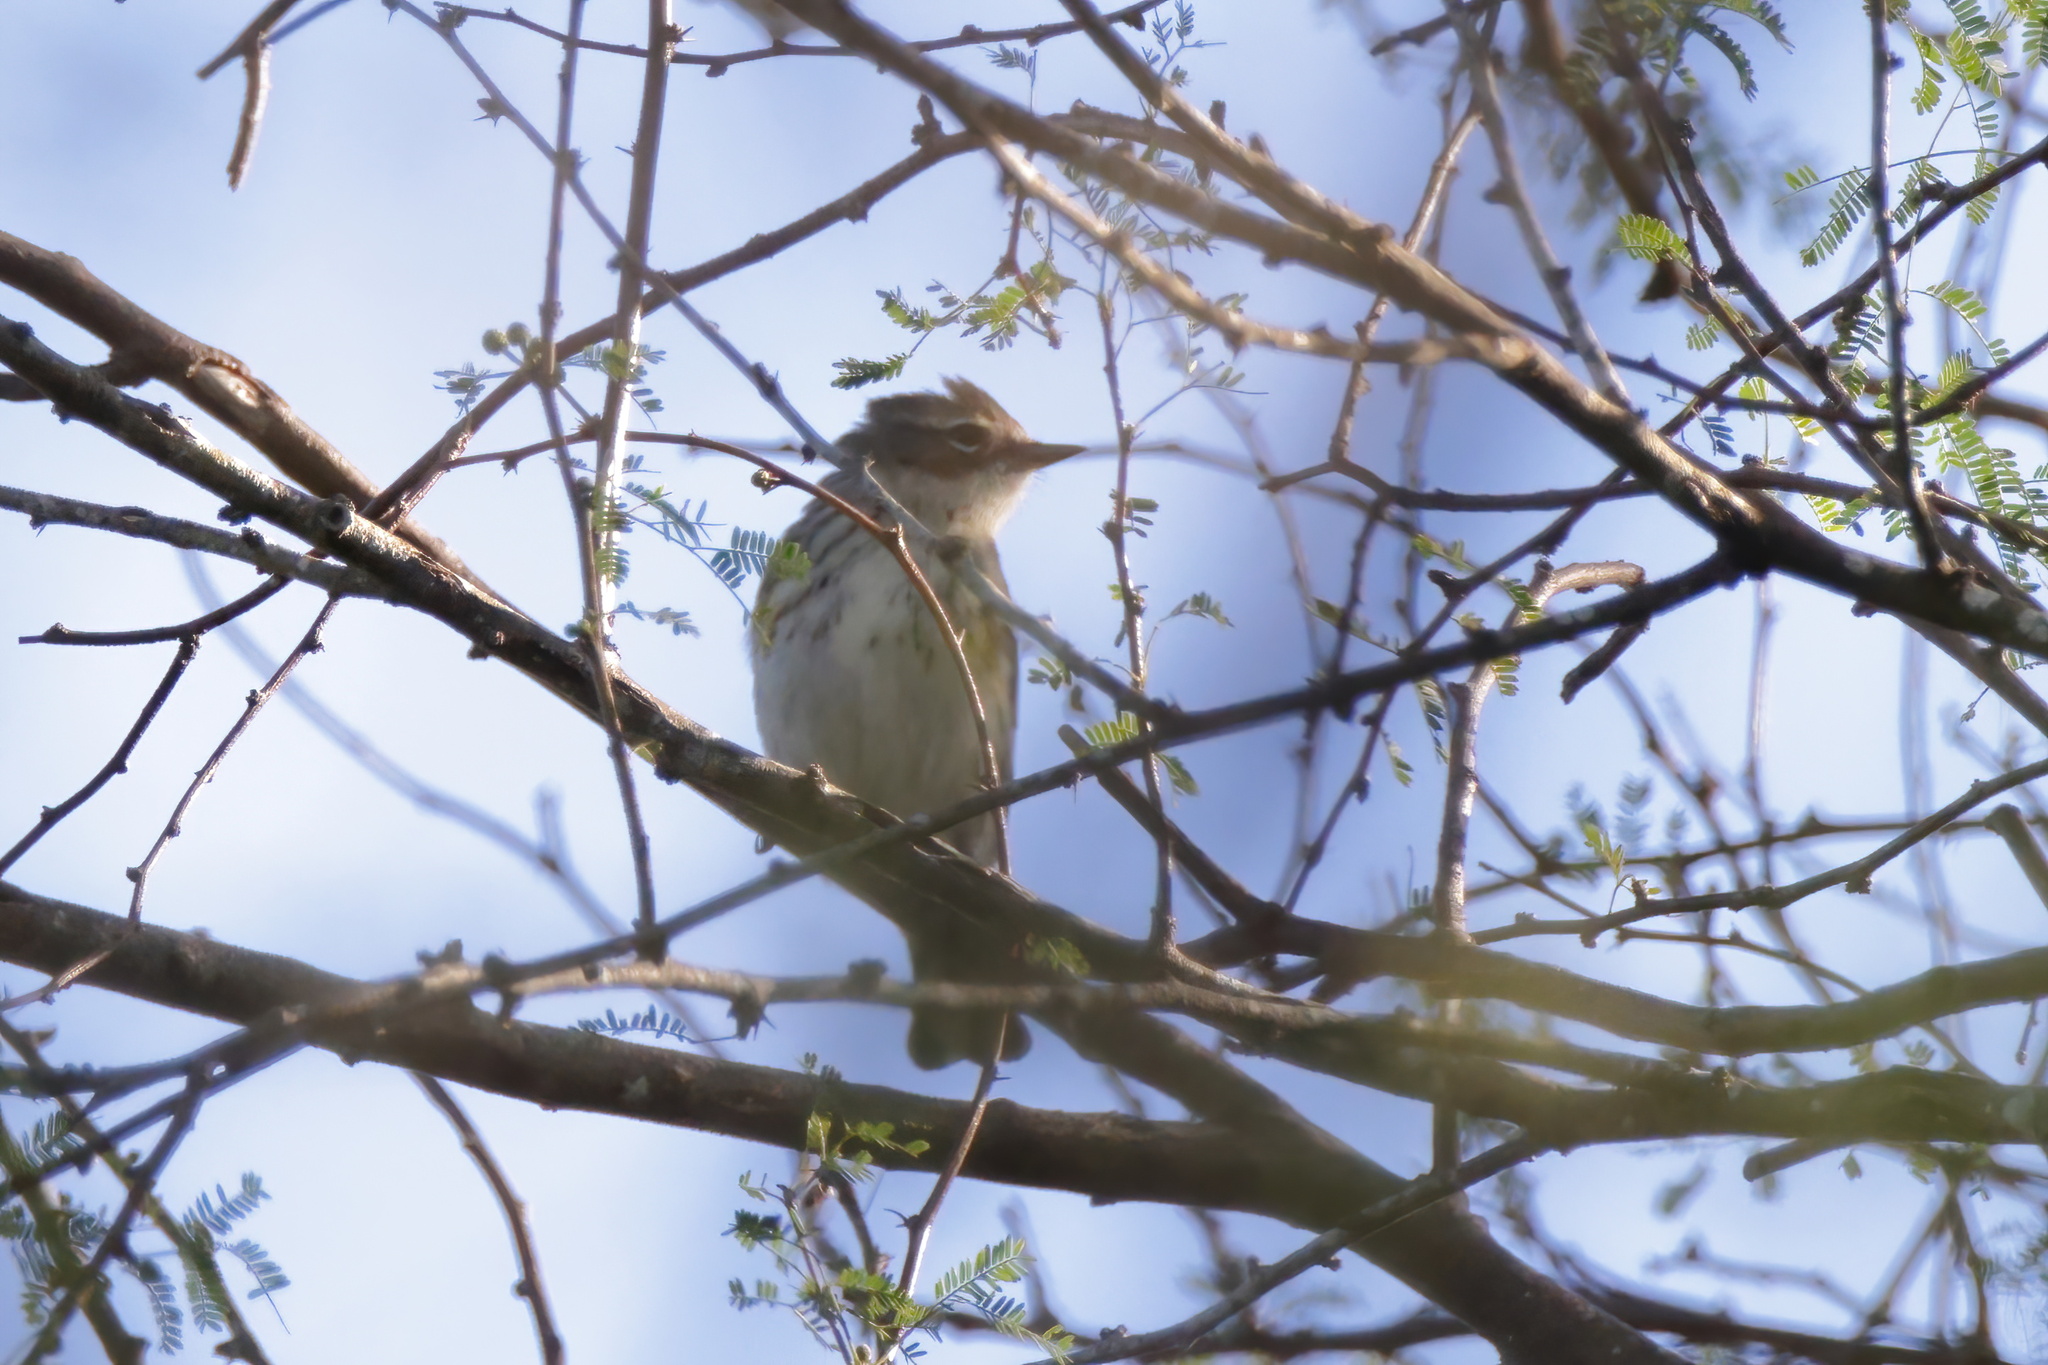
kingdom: Animalia
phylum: Chordata
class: Aves
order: Passeriformes
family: Parulidae
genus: Setophaga
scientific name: Setophaga coronata
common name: Myrtle warbler
